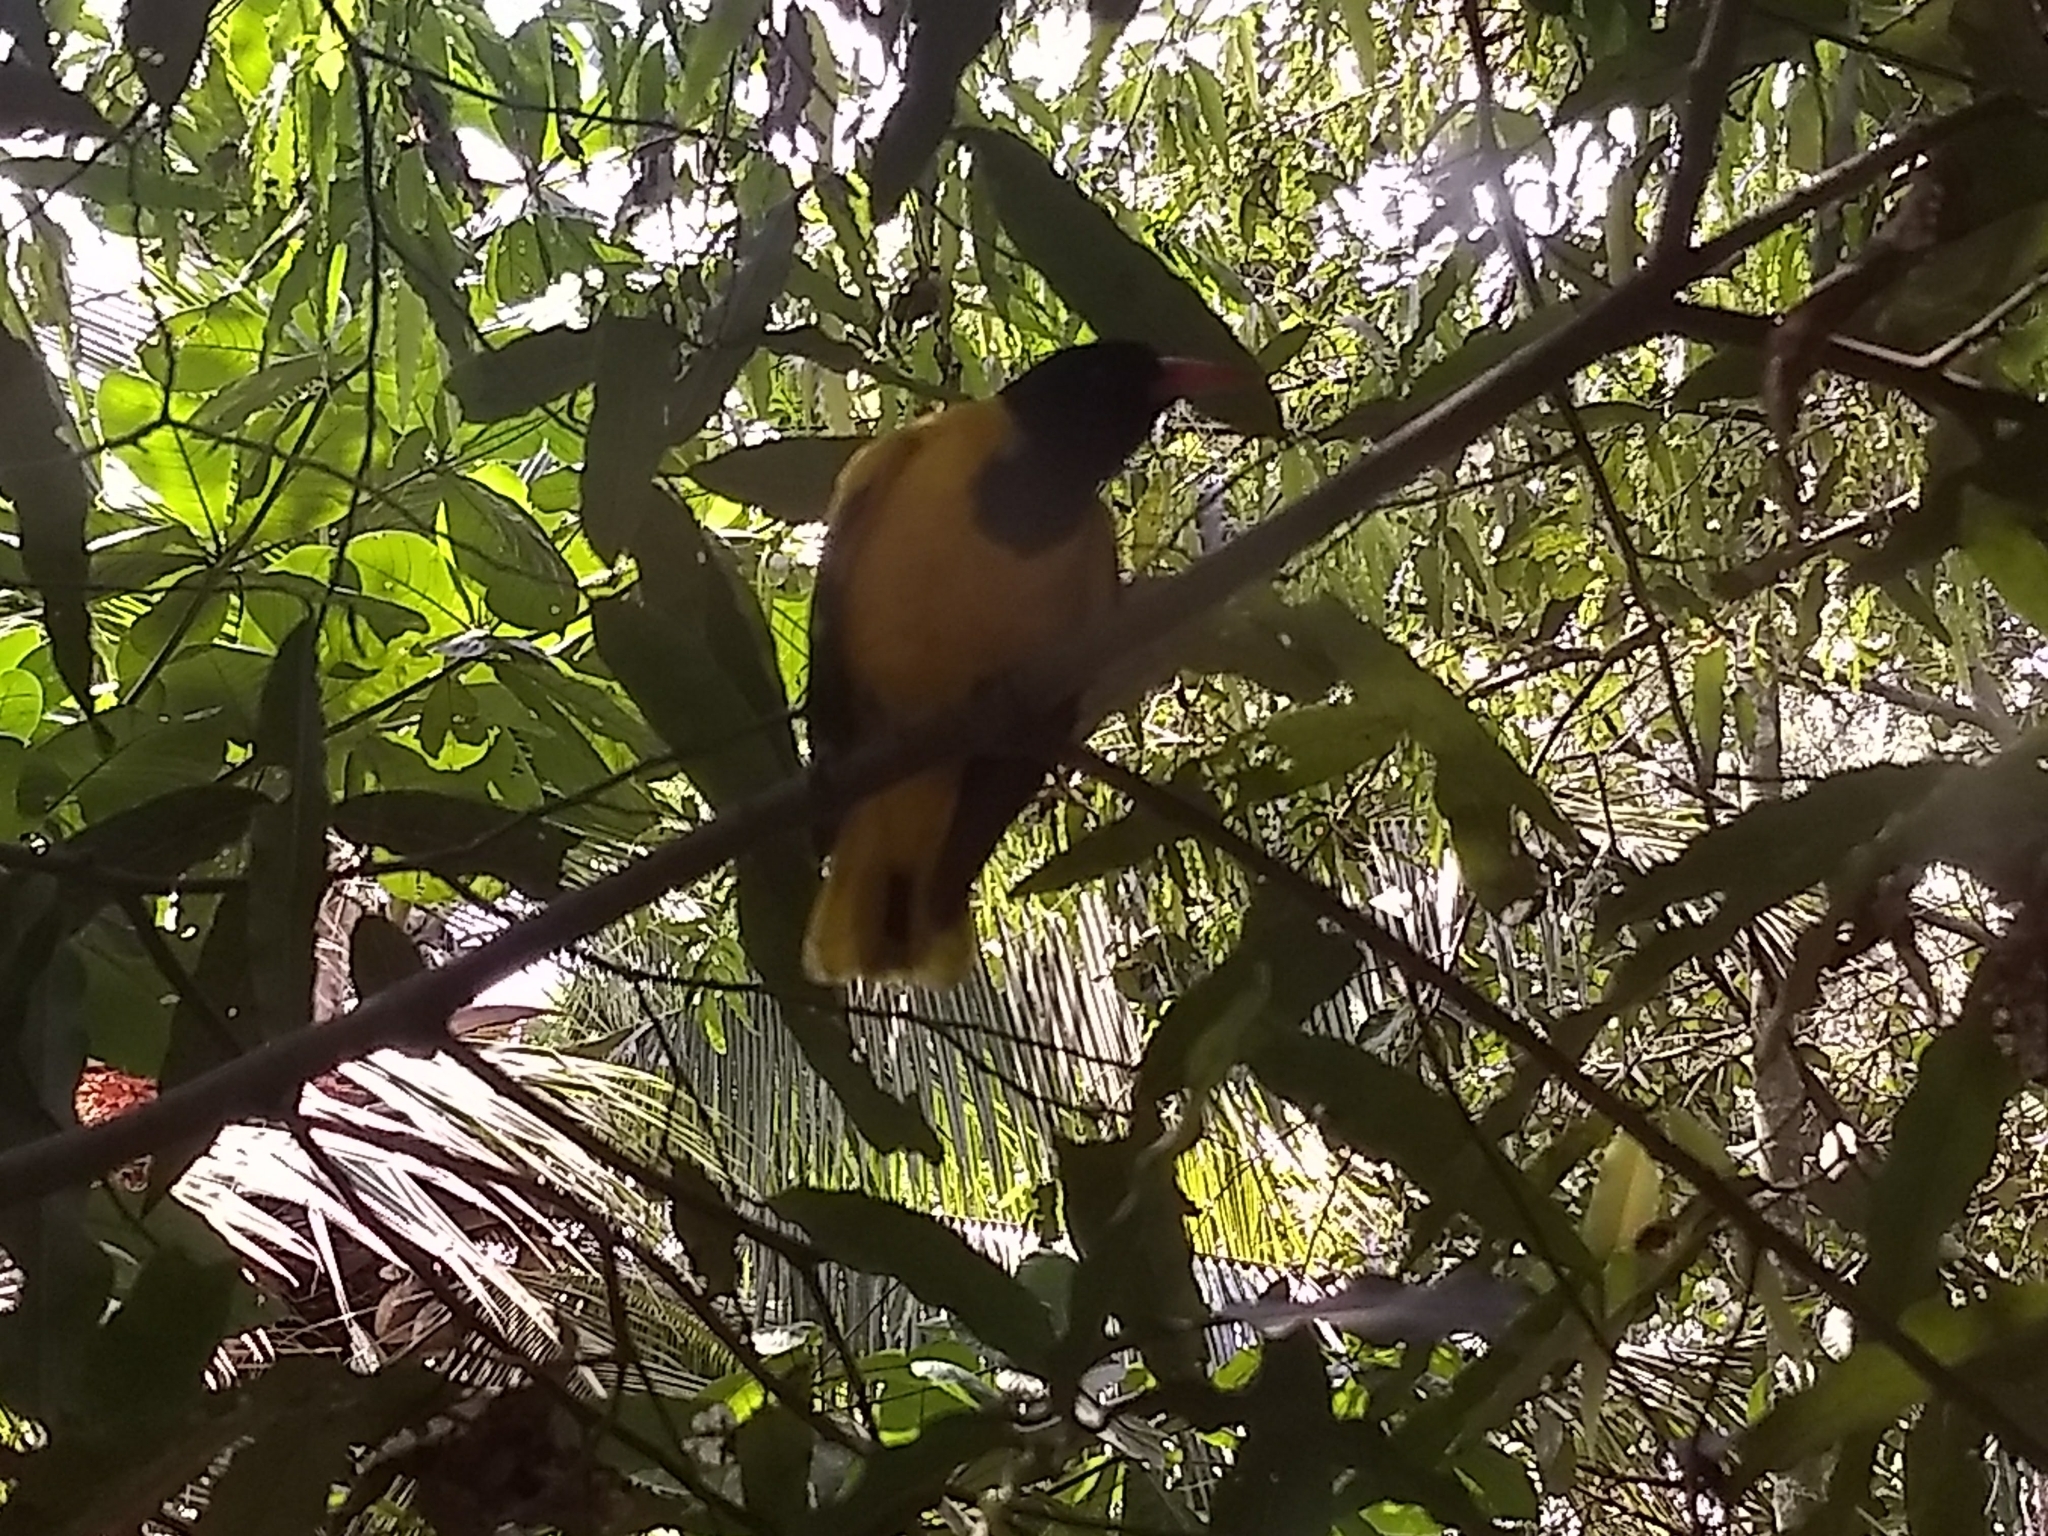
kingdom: Animalia
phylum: Chordata
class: Aves
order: Passeriformes
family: Oriolidae
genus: Oriolus
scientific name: Oriolus xanthornus
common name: Black-hooded oriole
